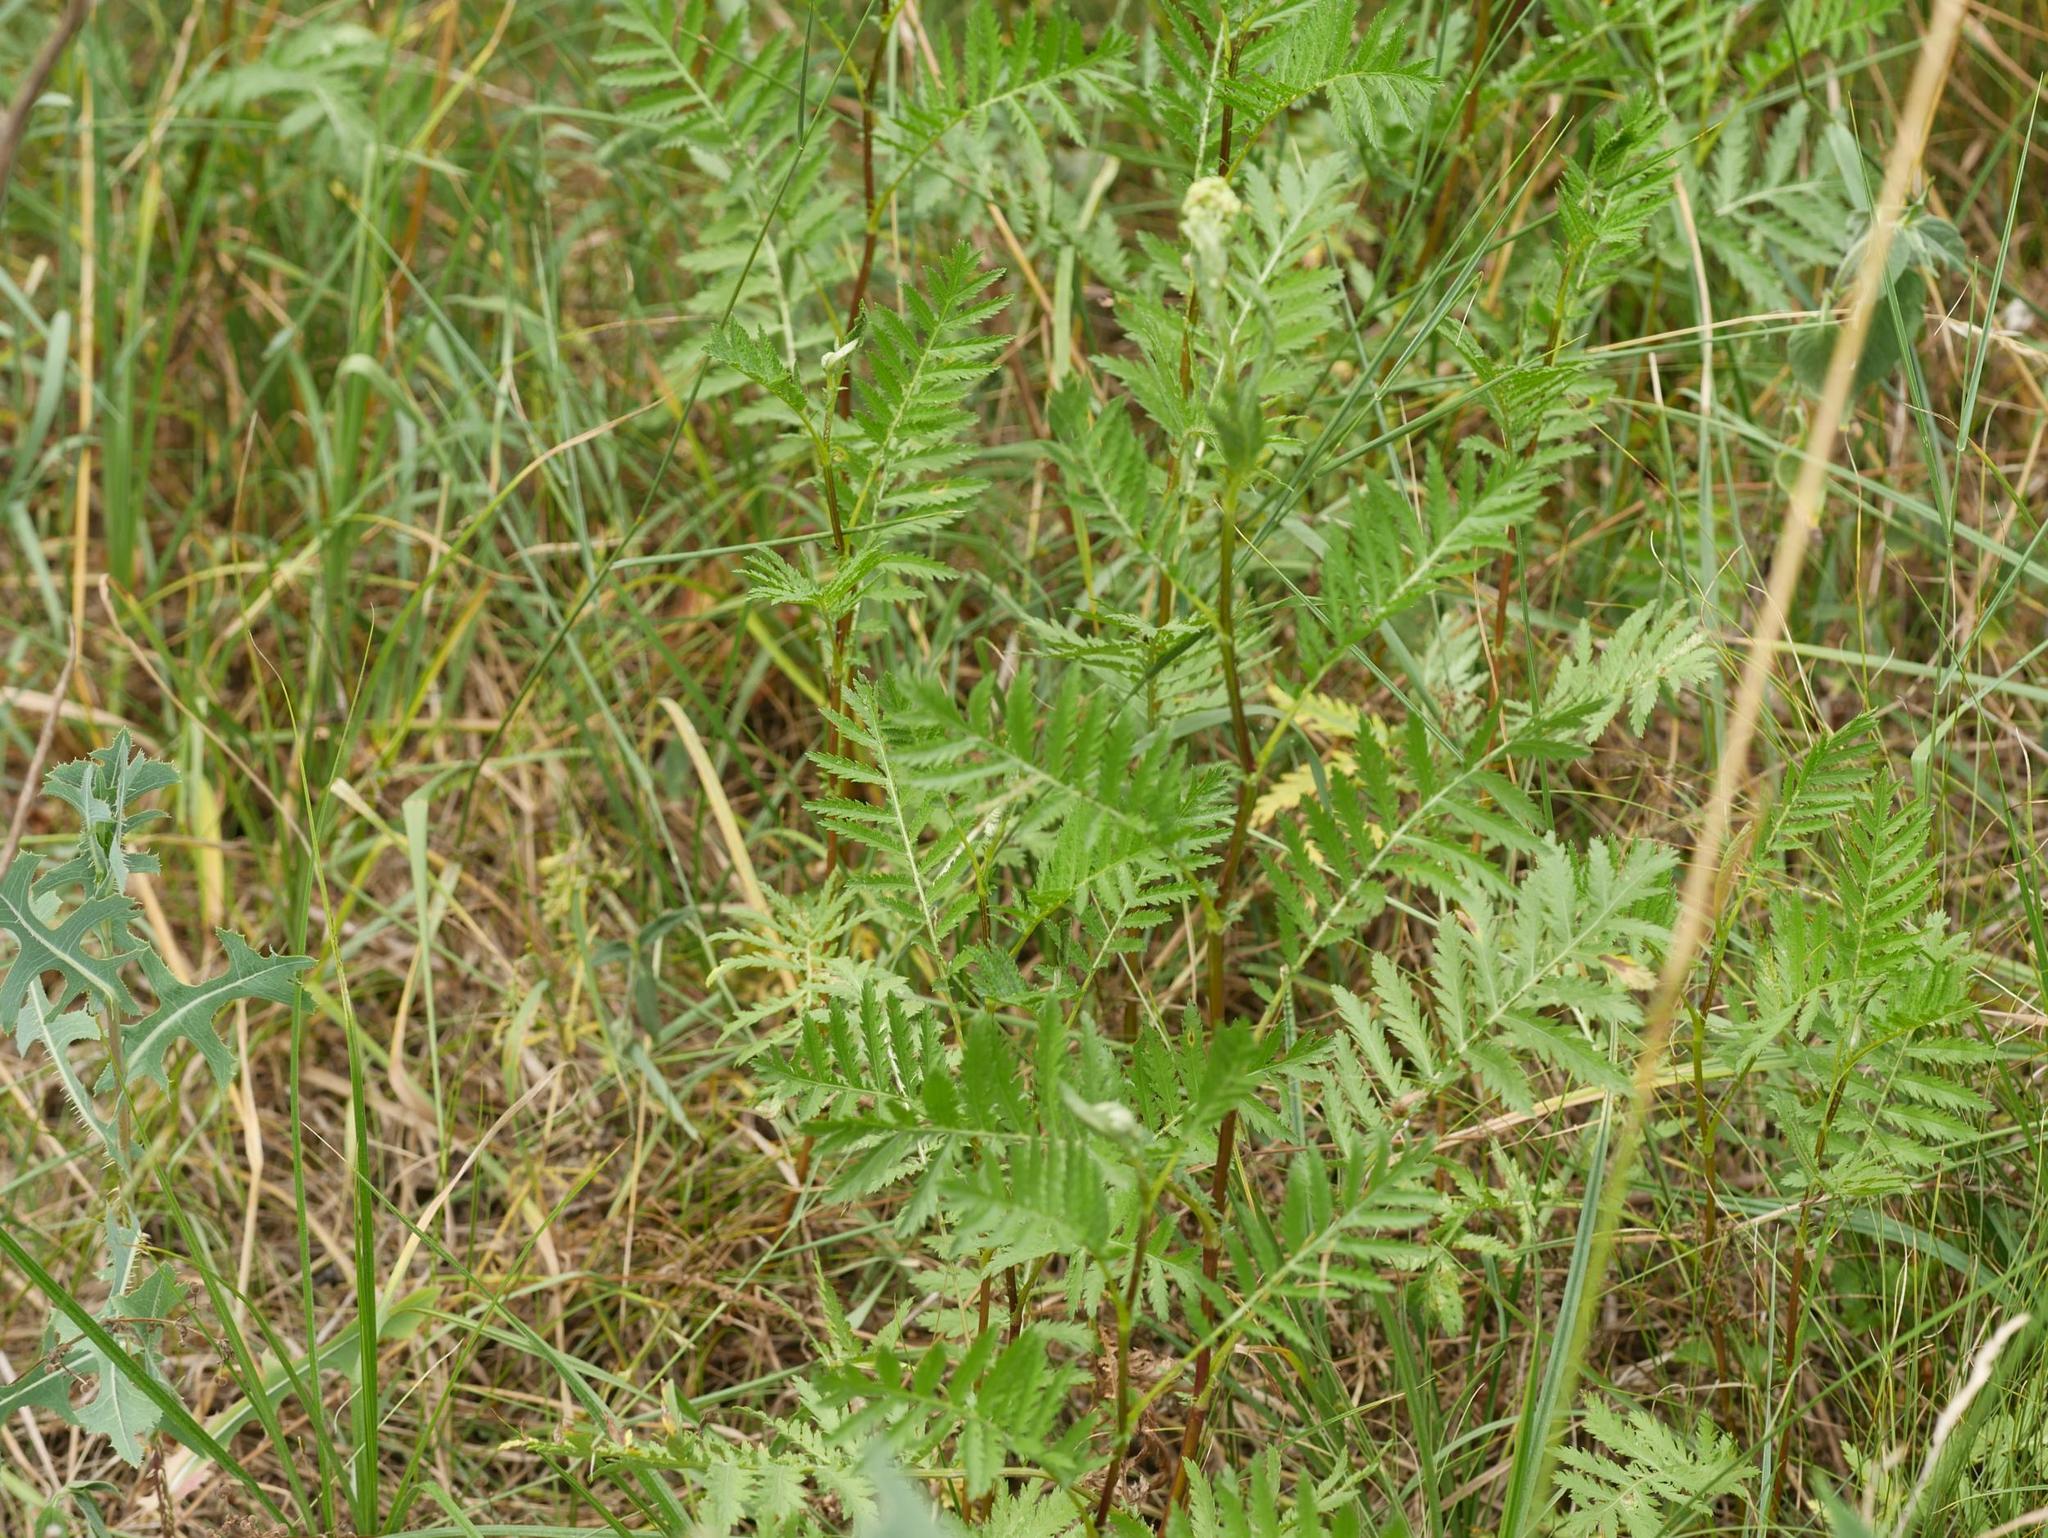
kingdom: Plantae
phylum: Tracheophyta
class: Magnoliopsida
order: Asterales
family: Asteraceae
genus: Tanacetum
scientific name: Tanacetum vulgare
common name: Common tansy
